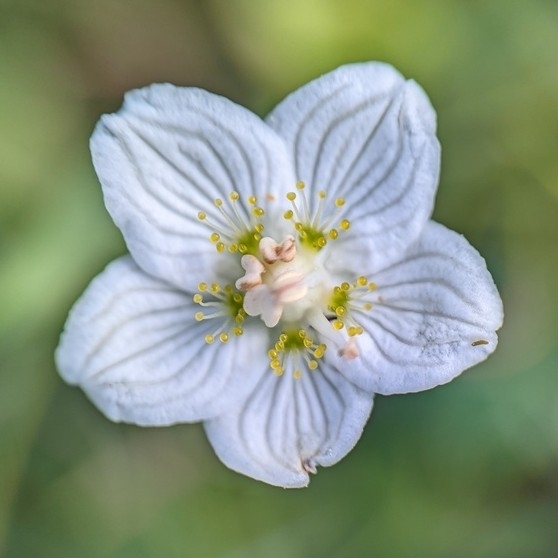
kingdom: Plantae
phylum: Tracheophyta
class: Magnoliopsida
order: Celastrales
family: Parnassiaceae
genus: Parnassia
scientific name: Parnassia palustris
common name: Grass-of-parnassus
